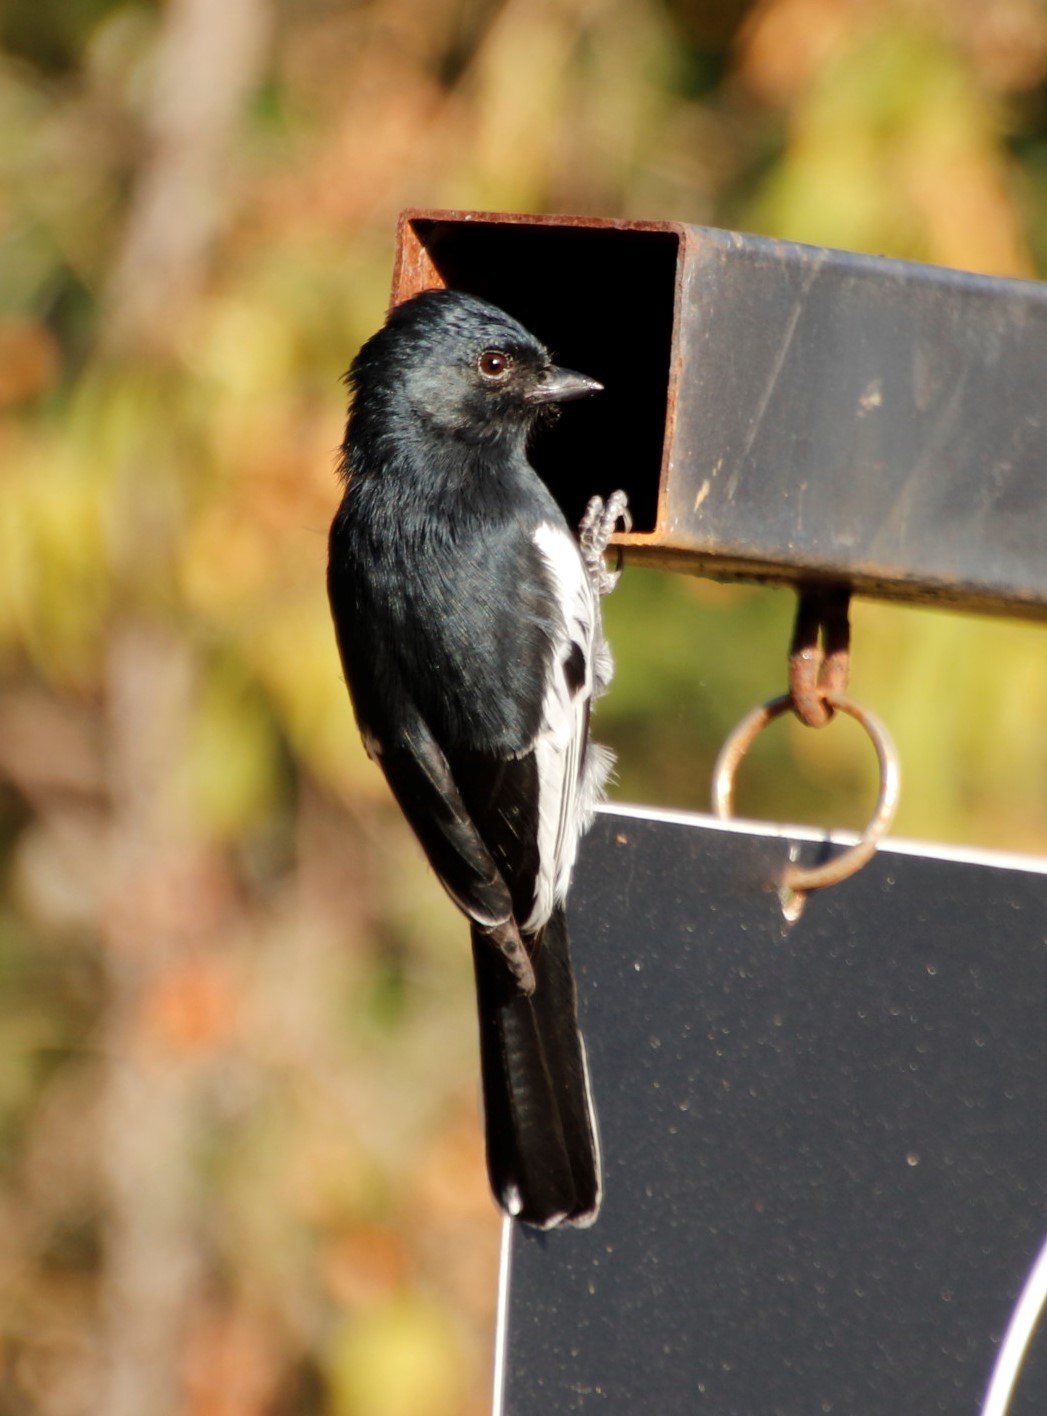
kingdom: Animalia
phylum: Chordata
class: Aves
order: Passeriformes
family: Paridae
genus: Parus
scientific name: Parus niger
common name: Southern black tit
